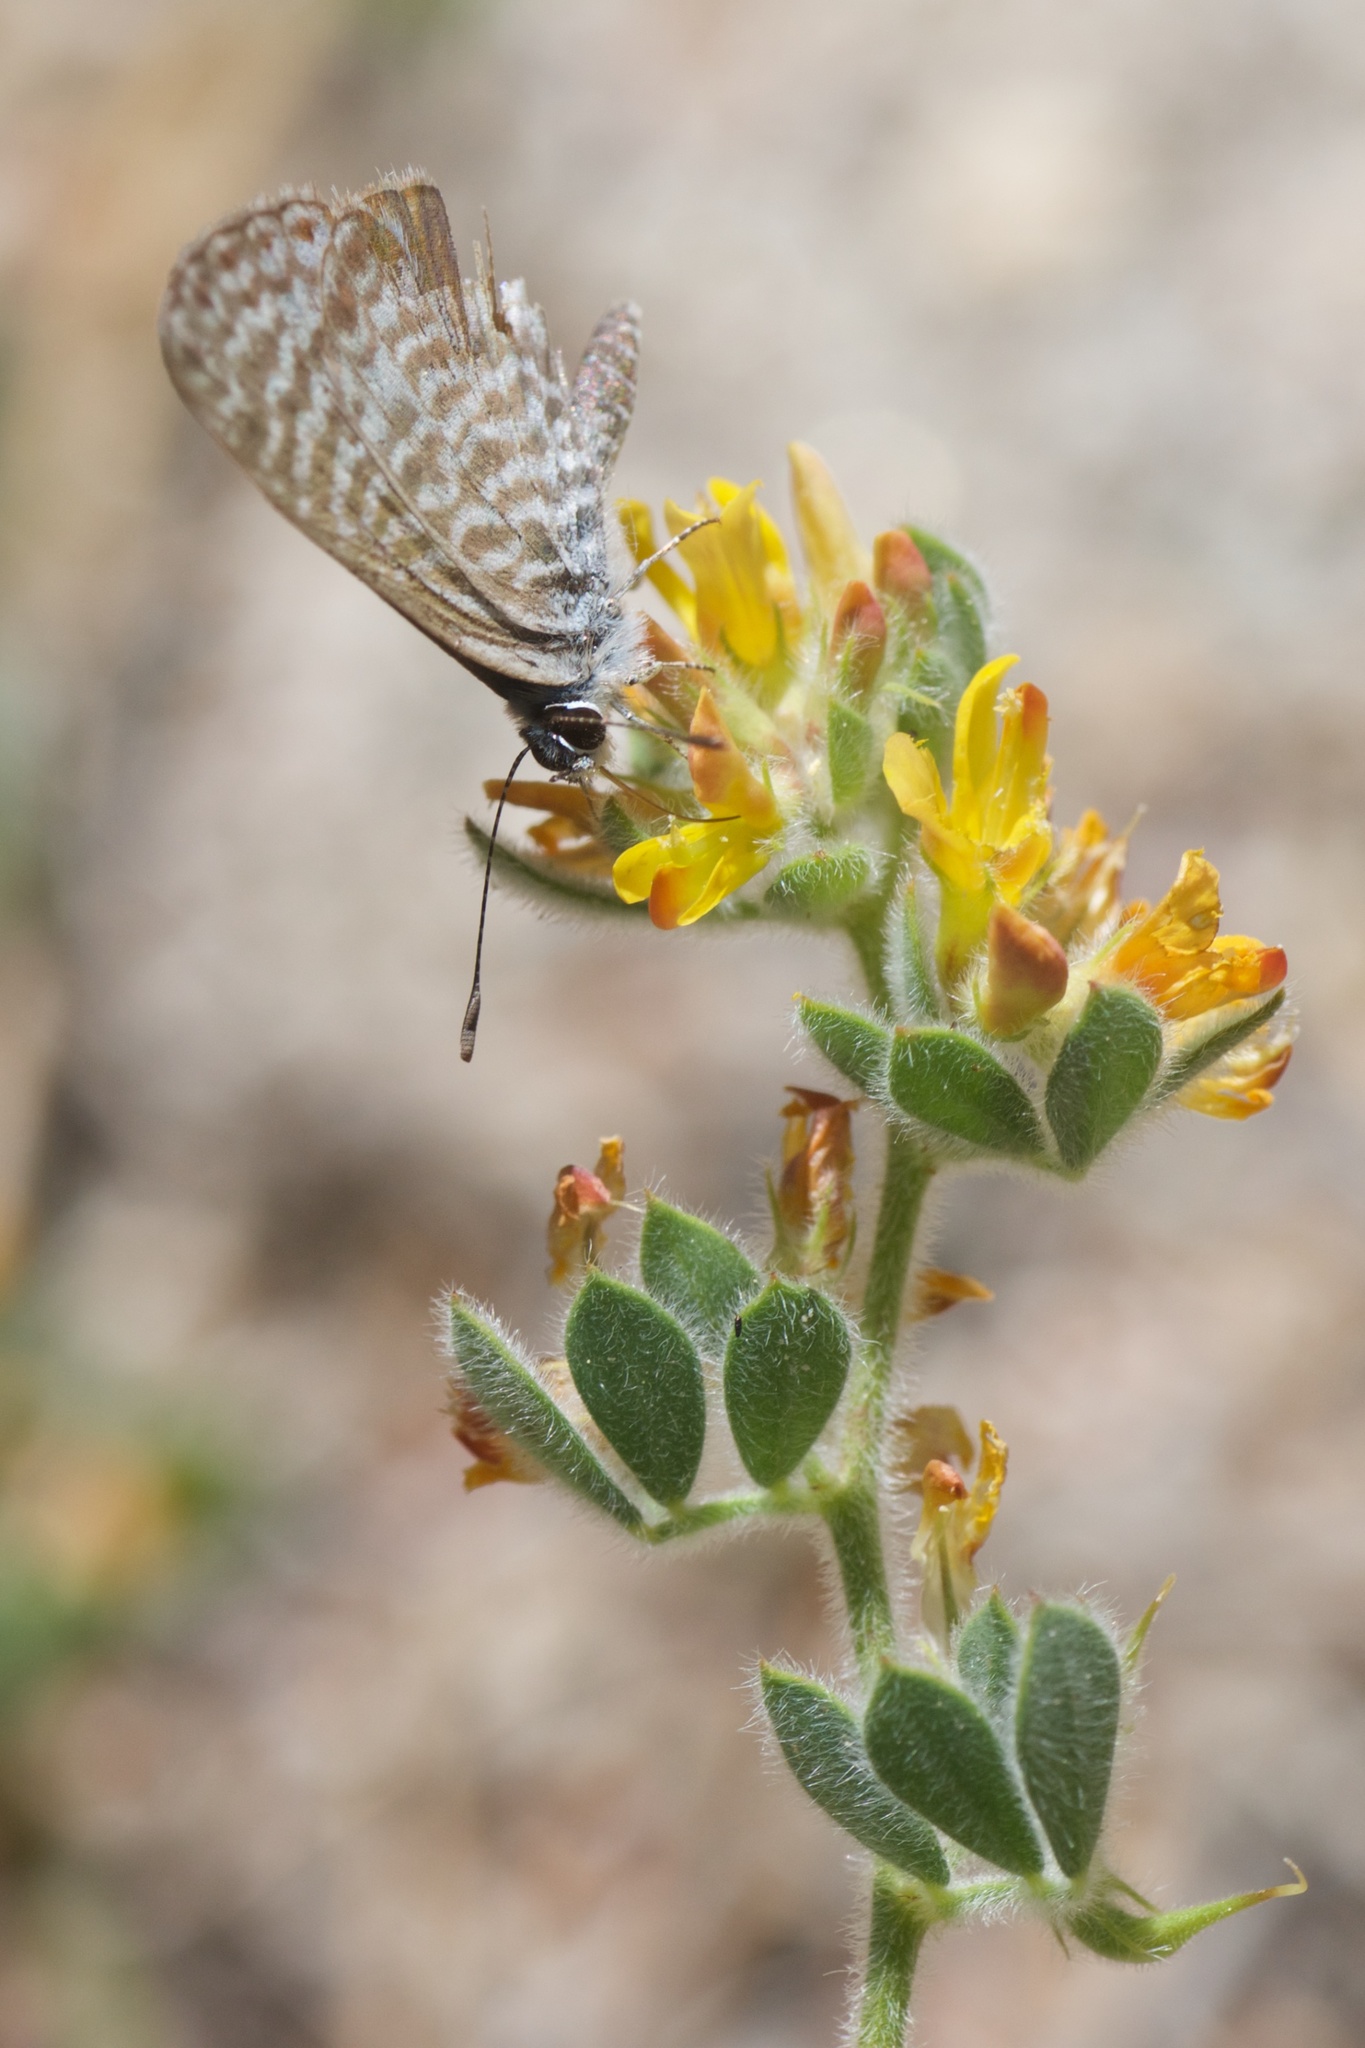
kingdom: Animalia
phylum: Arthropoda
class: Insecta
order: Lepidoptera
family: Lycaenidae
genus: Leptotes
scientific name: Leptotes marina
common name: Marine blue
